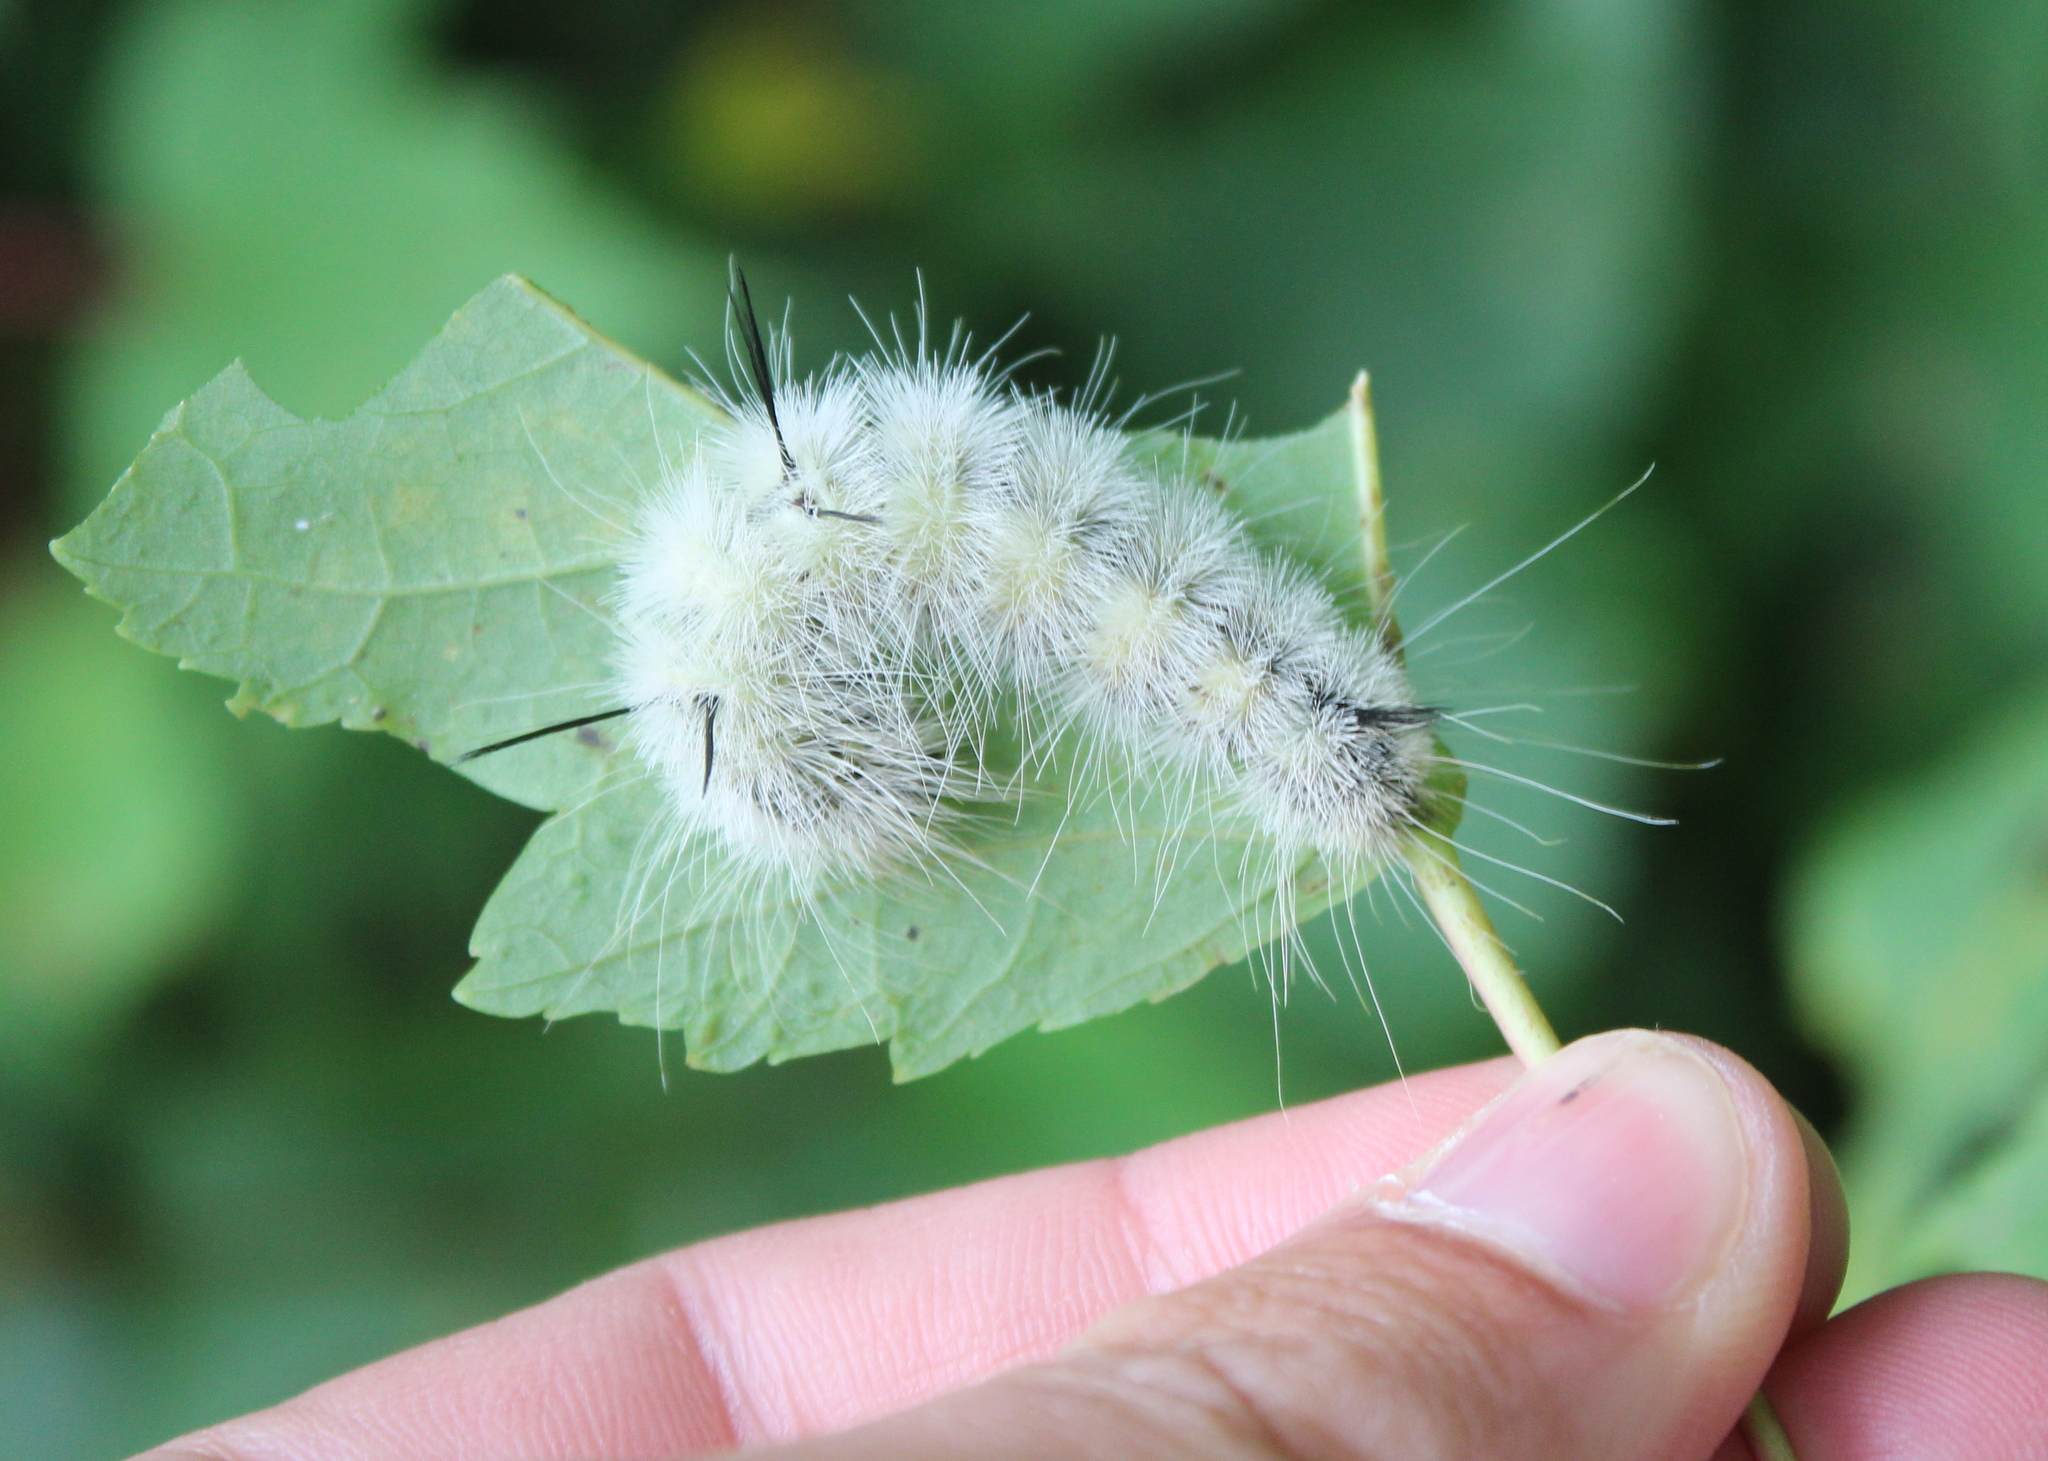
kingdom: Animalia
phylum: Arthropoda
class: Insecta
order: Lepidoptera
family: Noctuidae
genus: Acronicta
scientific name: Acronicta americana
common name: American dagger
